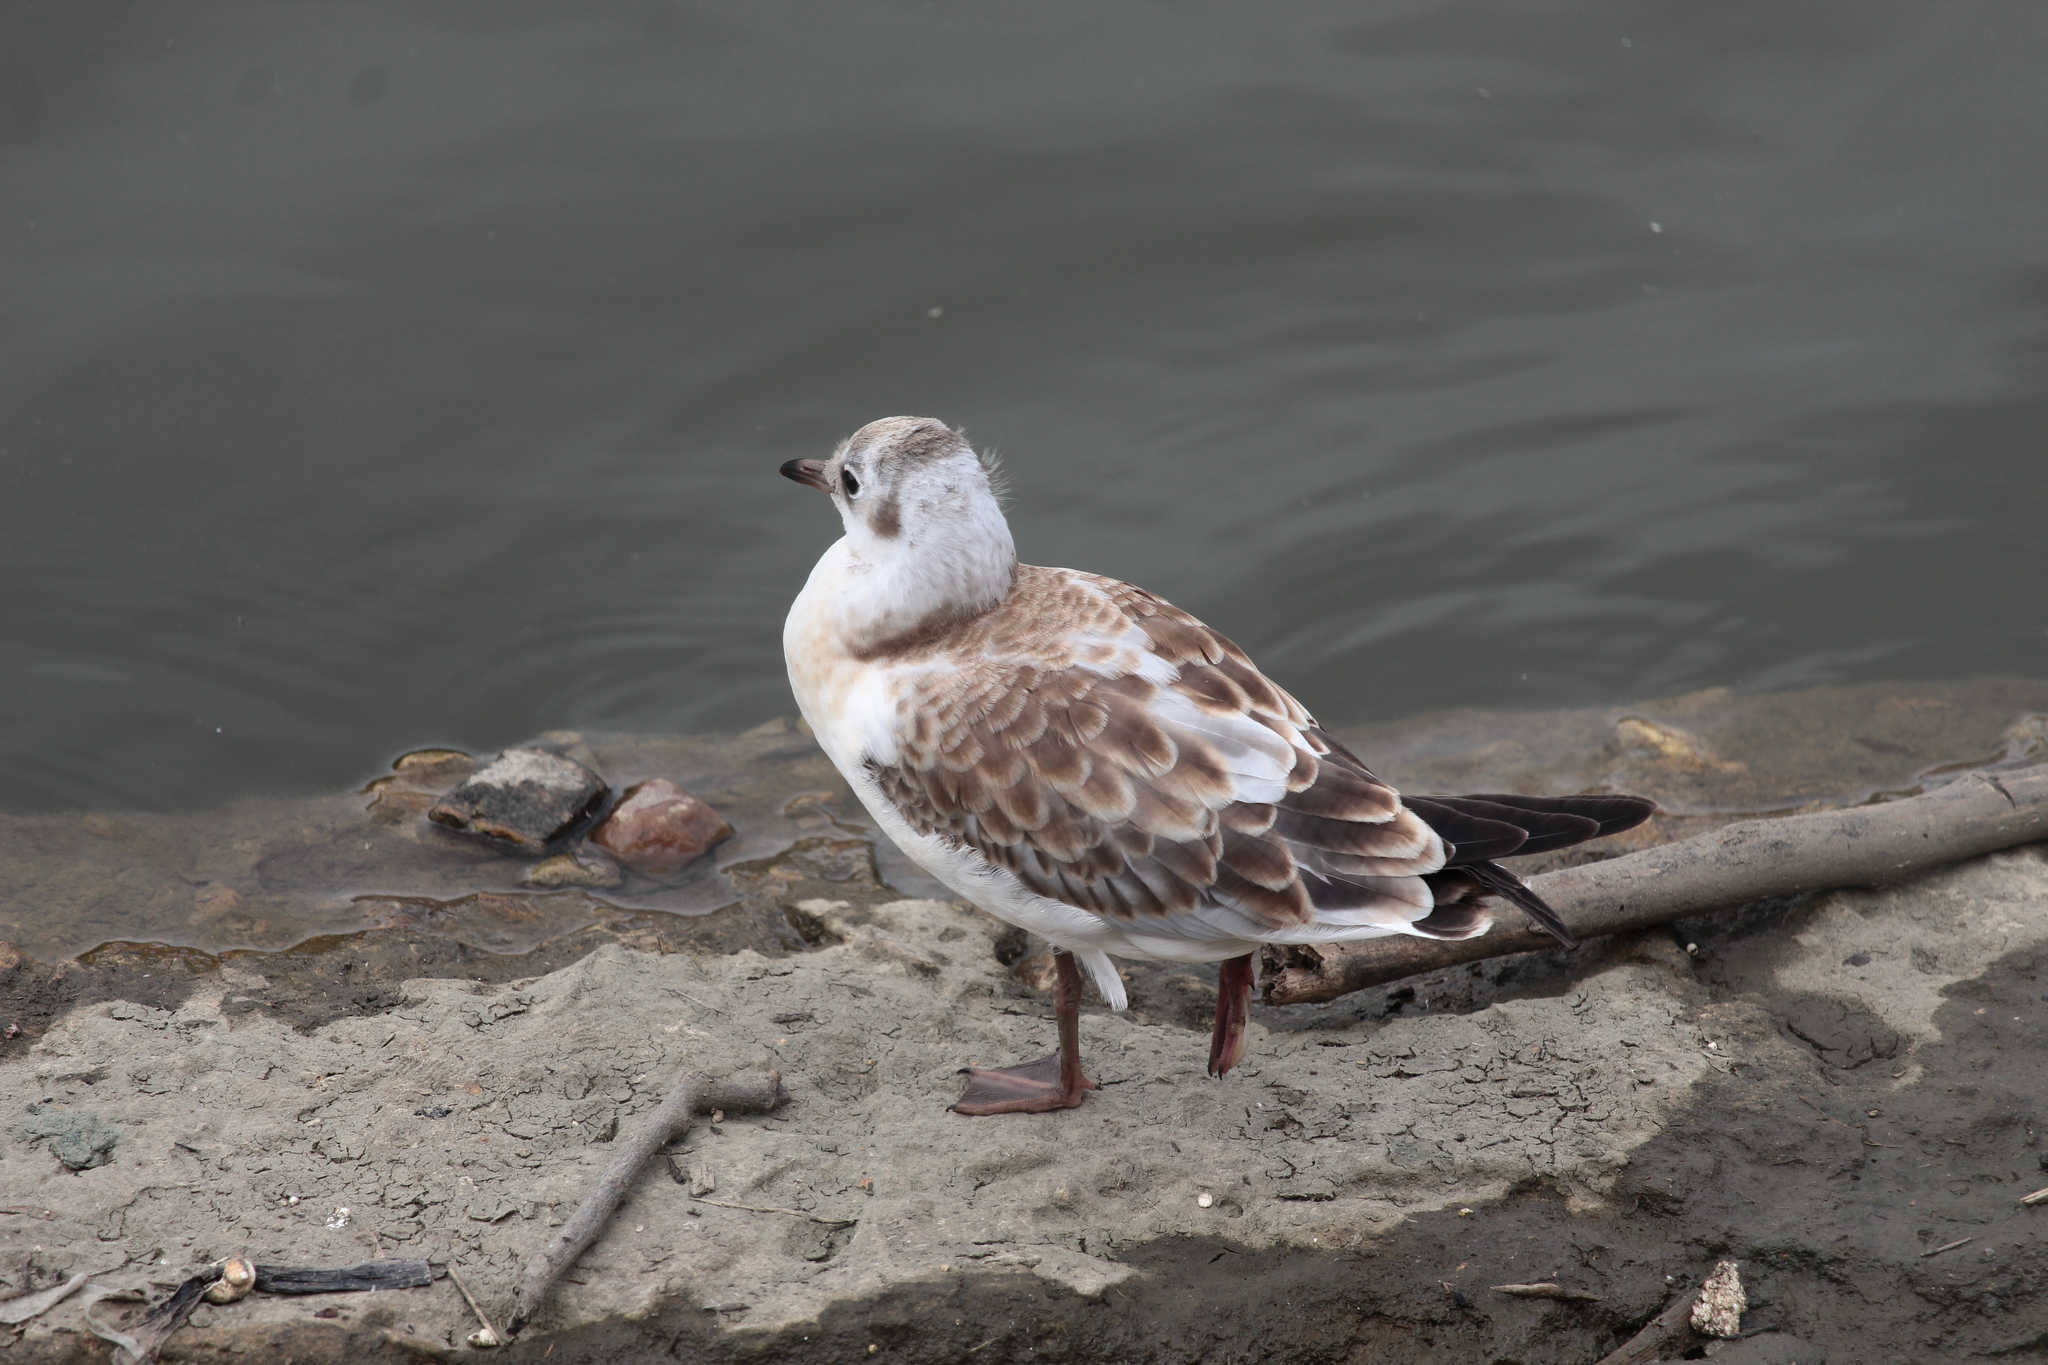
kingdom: Animalia
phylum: Chordata
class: Aves
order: Charadriiformes
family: Laridae
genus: Chroicocephalus
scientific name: Chroicocephalus ridibundus
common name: Black-headed gull
